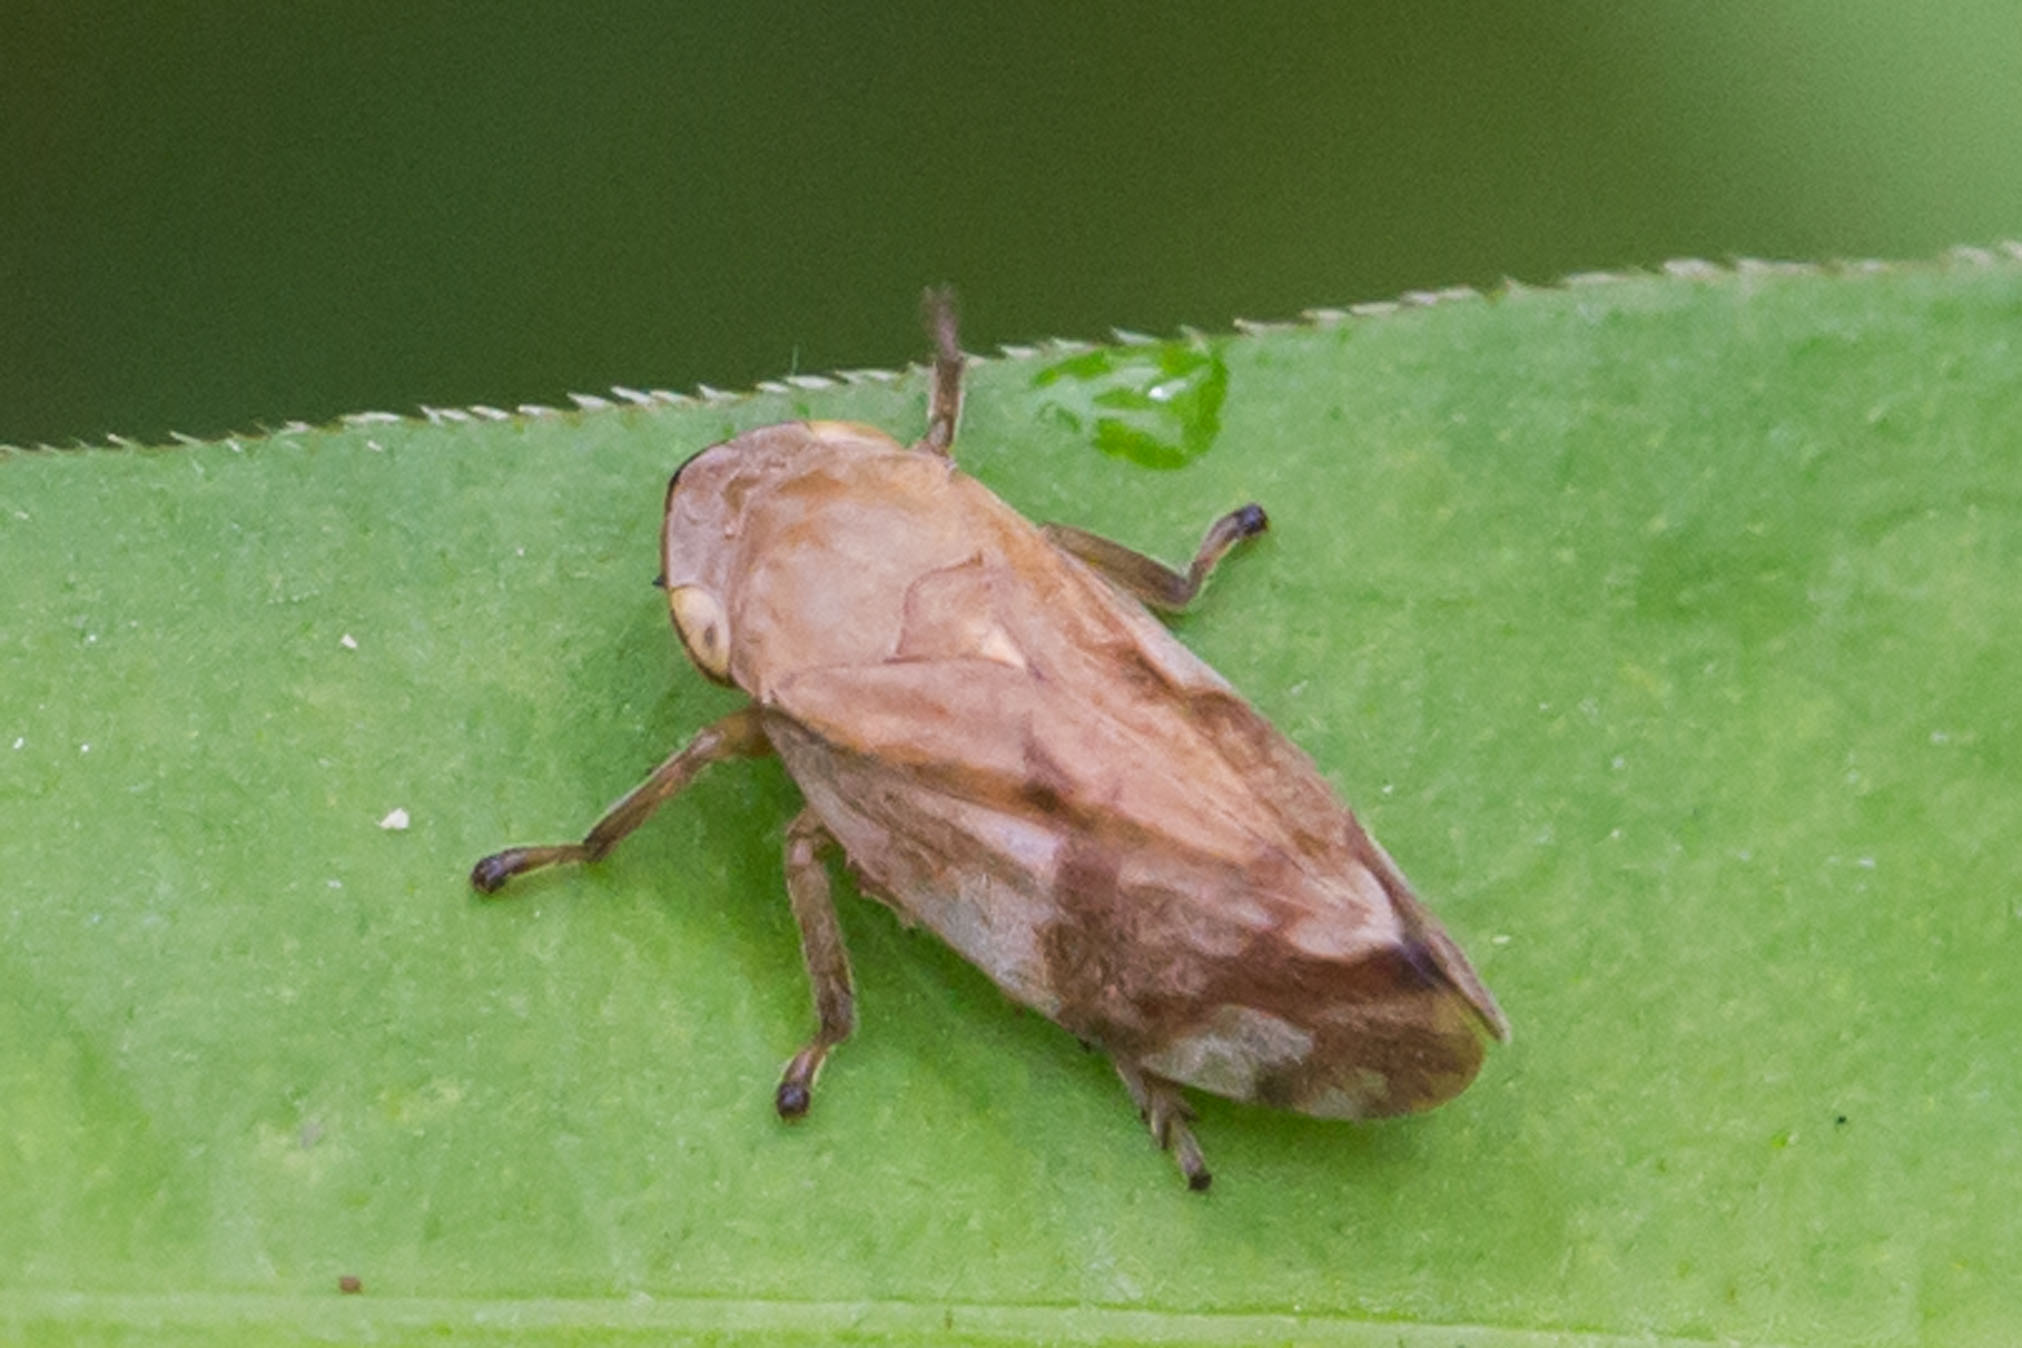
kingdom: Animalia
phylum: Arthropoda
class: Insecta
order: Hemiptera
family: Aphrophoridae
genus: Philaenus
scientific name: Philaenus spumarius
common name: Meadow spittlebug
